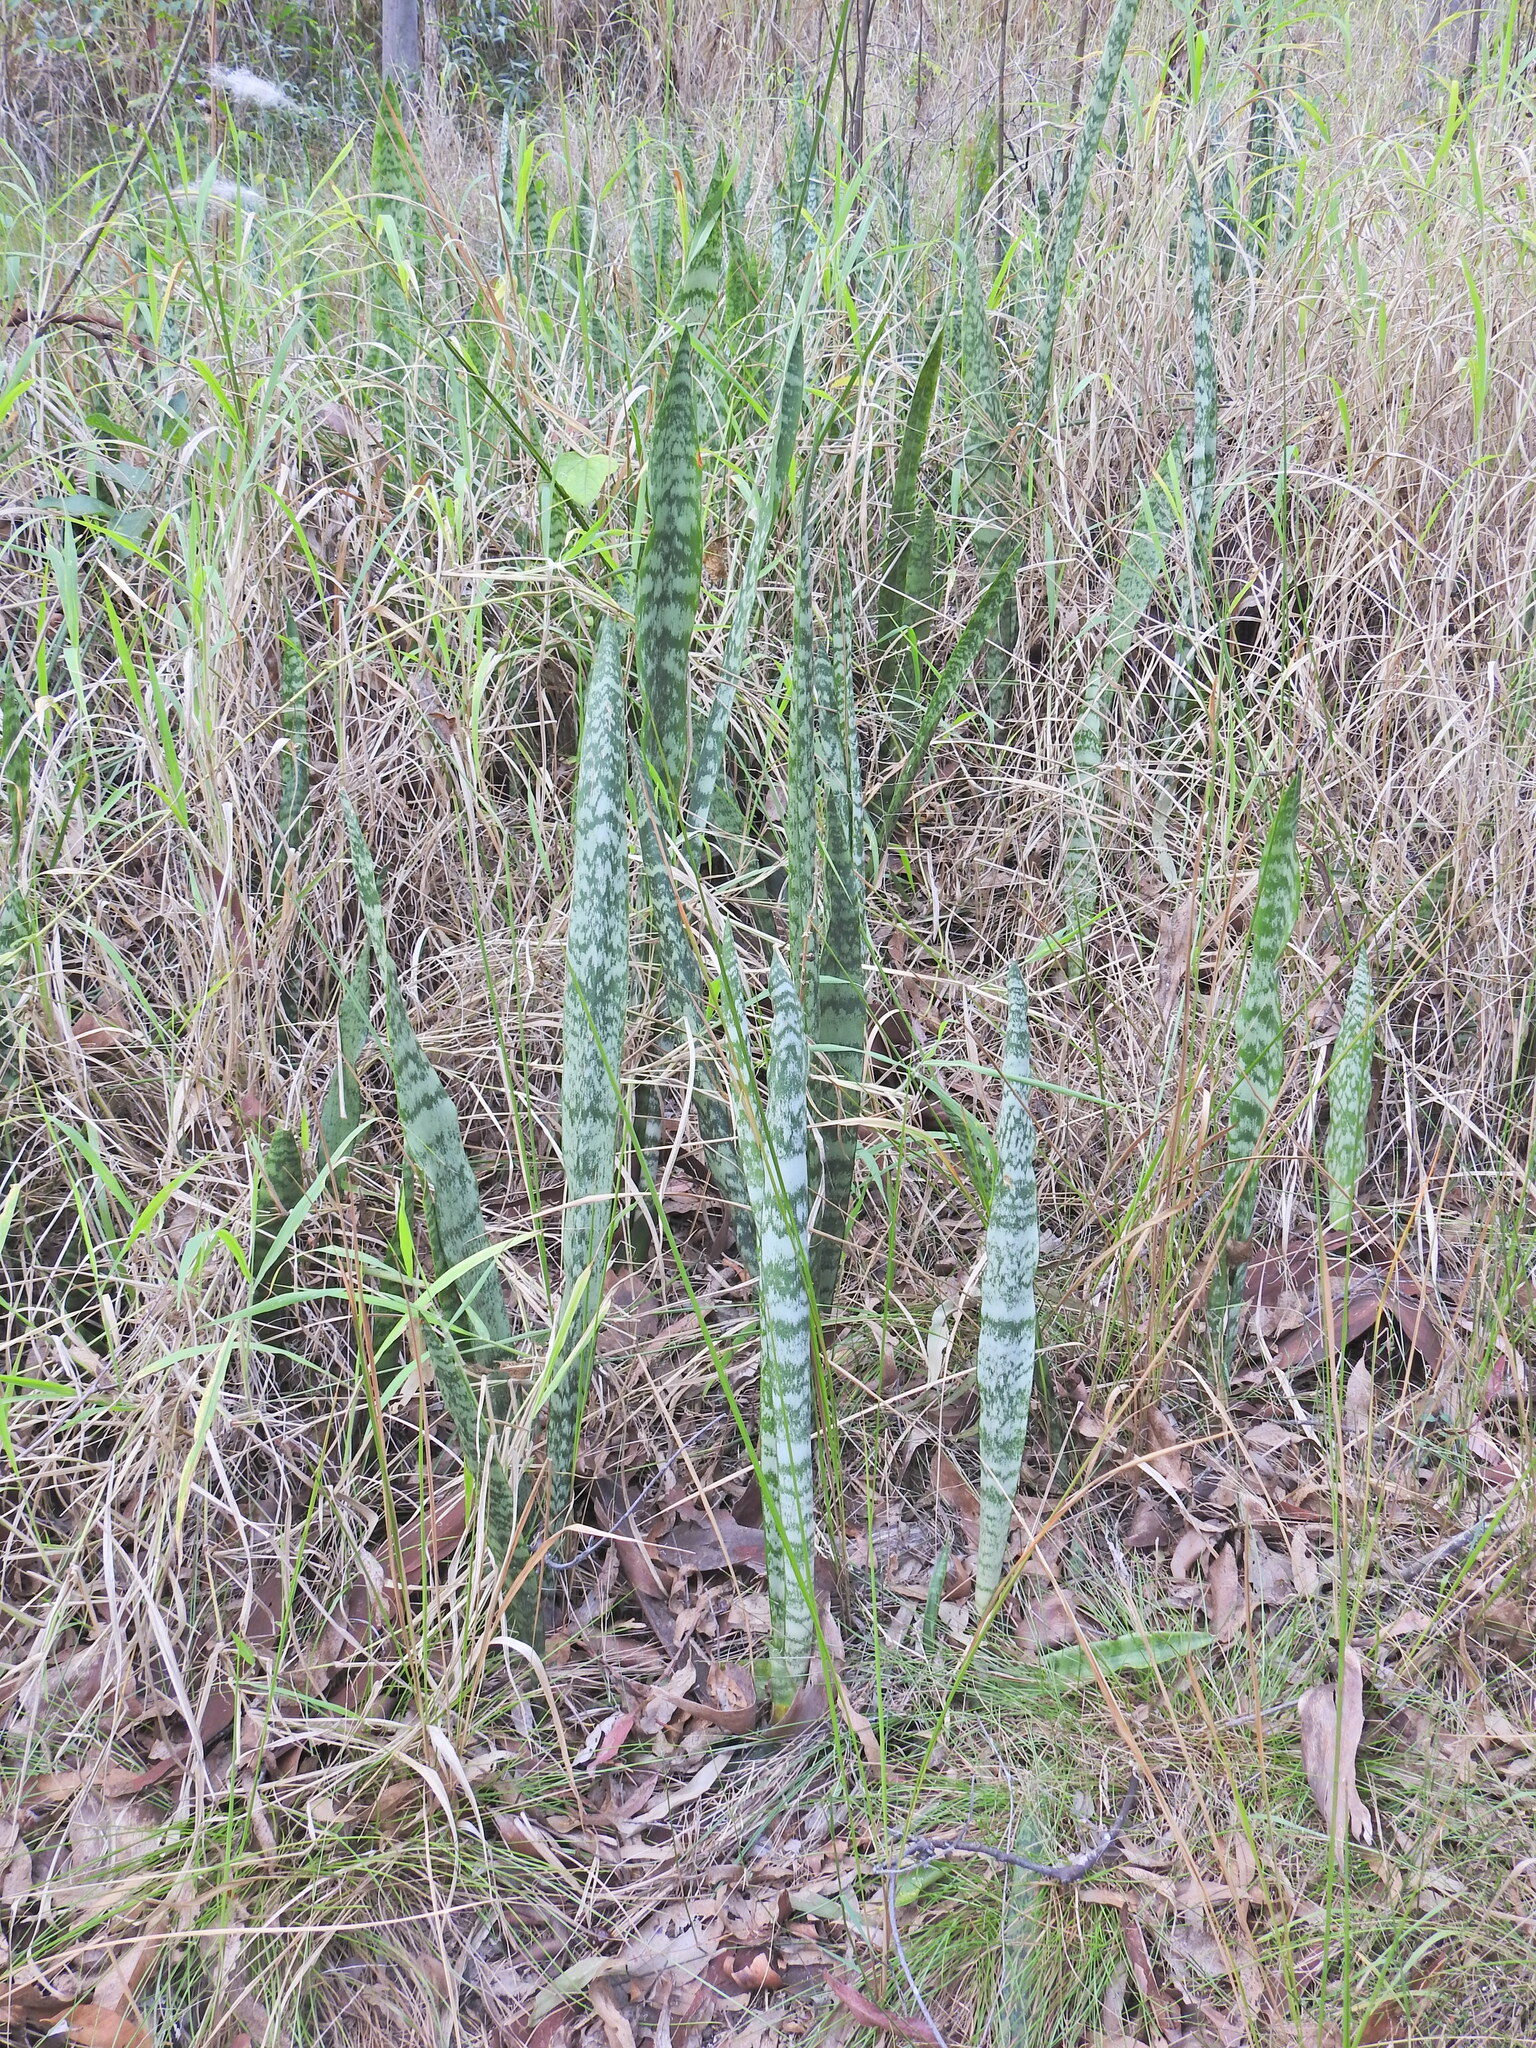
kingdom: Plantae
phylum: Tracheophyta
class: Liliopsida
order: Asparagales
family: Asparagaceae
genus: Dracaena
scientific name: Dracaena trifasciata
